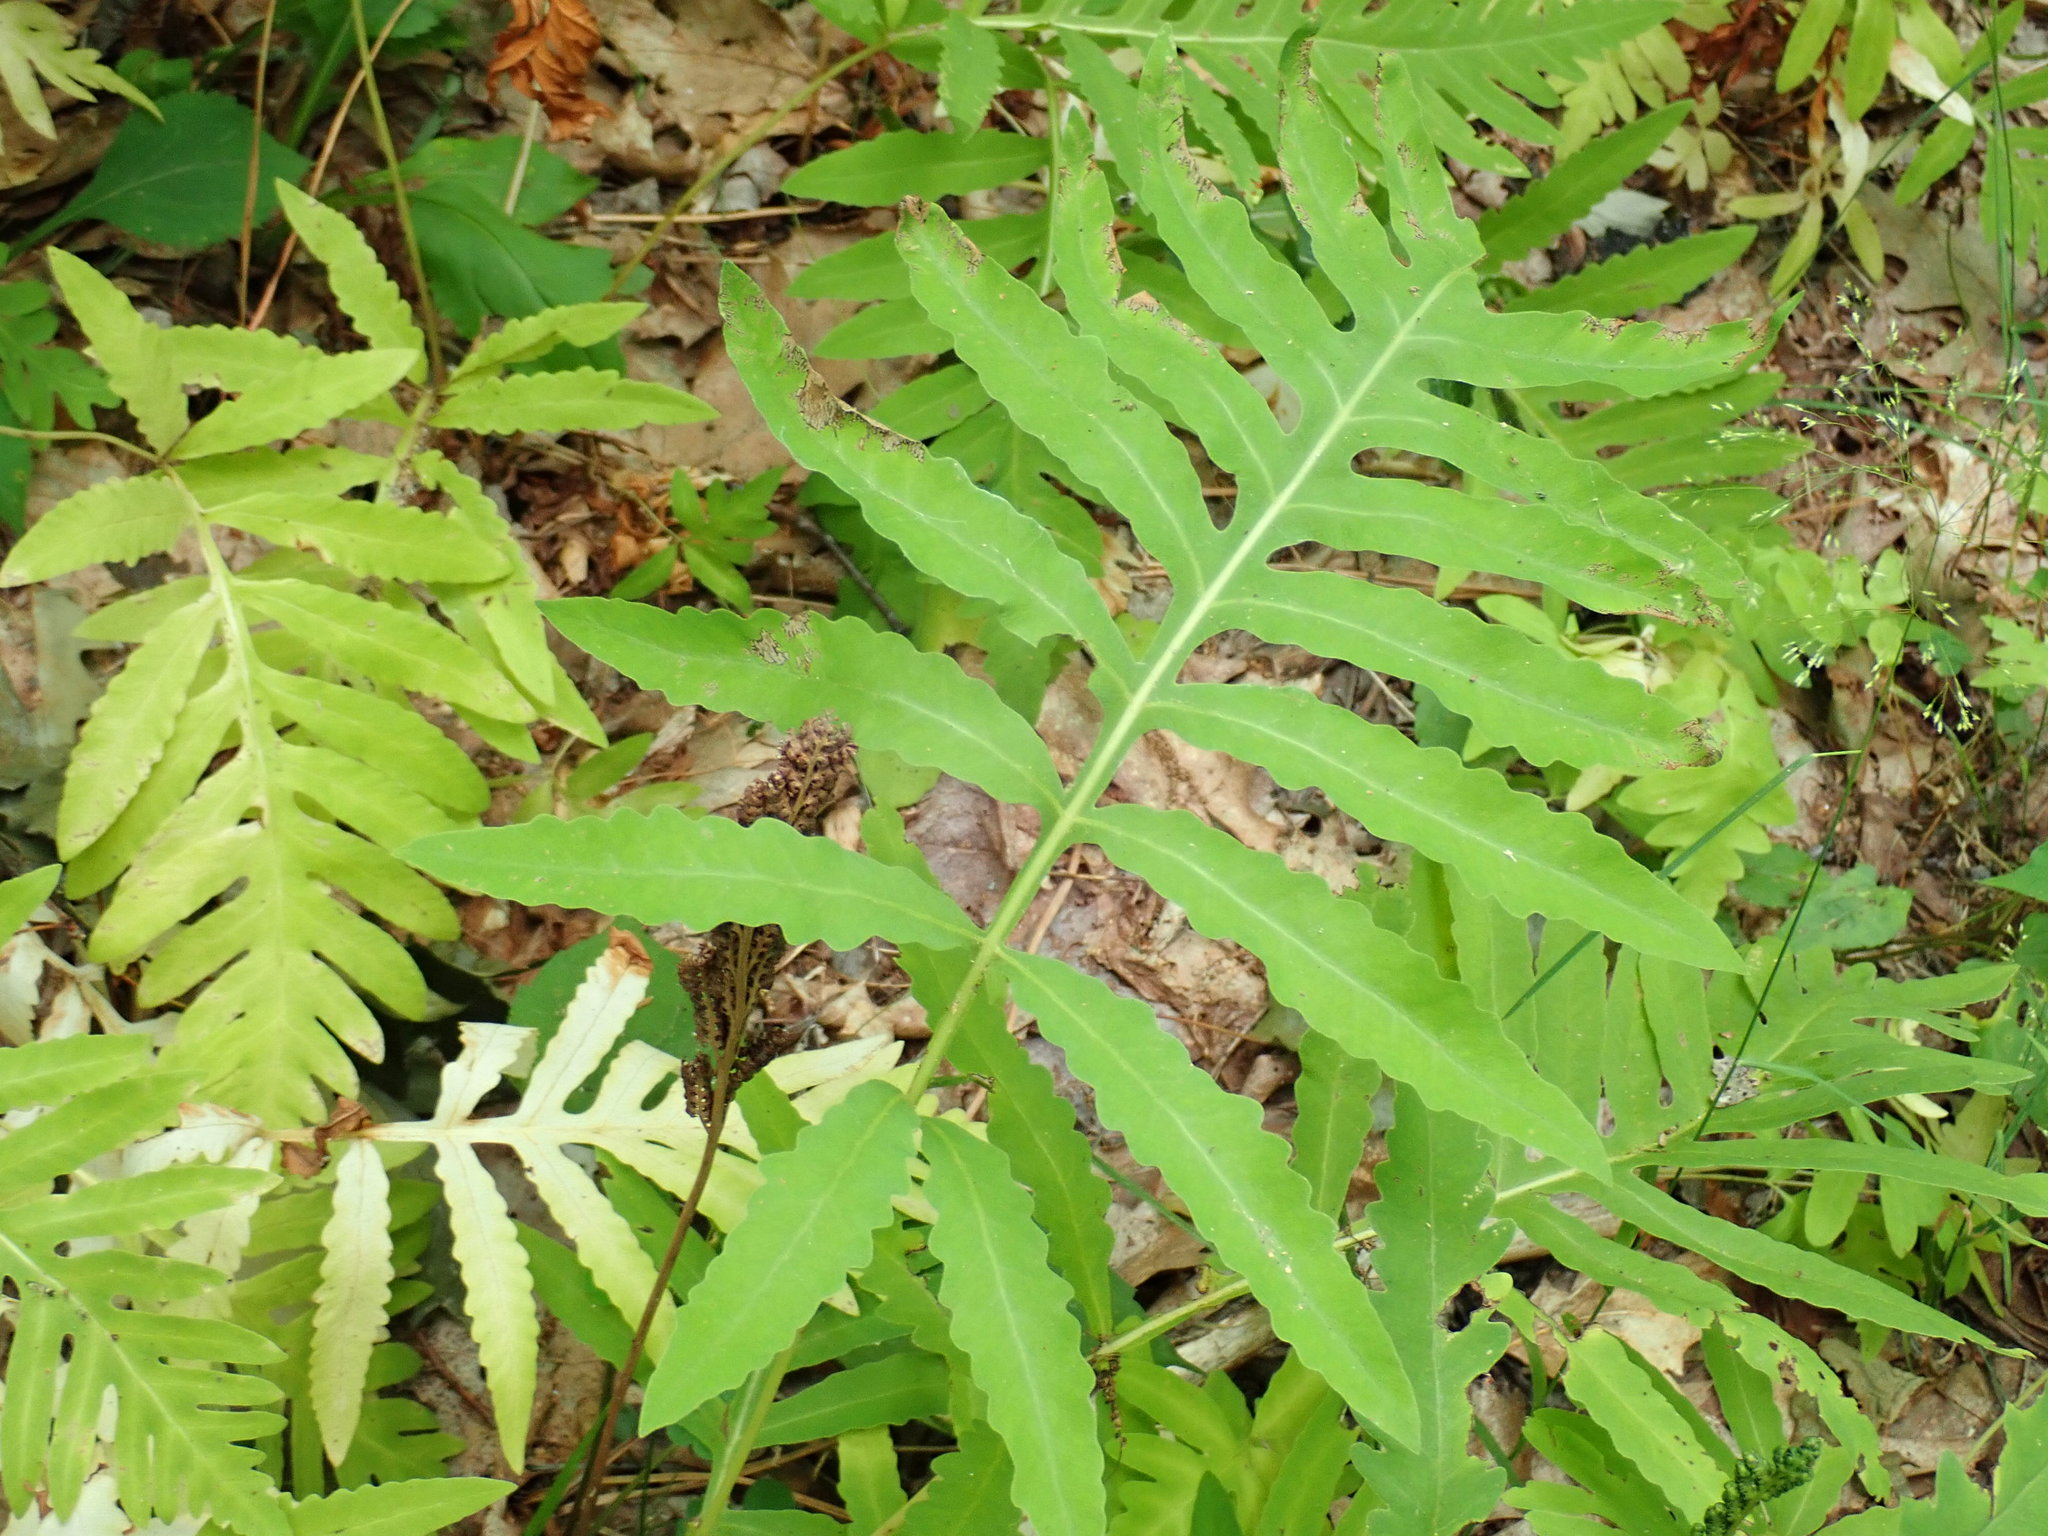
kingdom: Plantae
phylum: Tracheophyta
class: Polypodiopsida
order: Polypodiales
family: Onocleaceae
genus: Onoclea
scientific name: Onoclea sensibilis
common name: Sensitive fern
